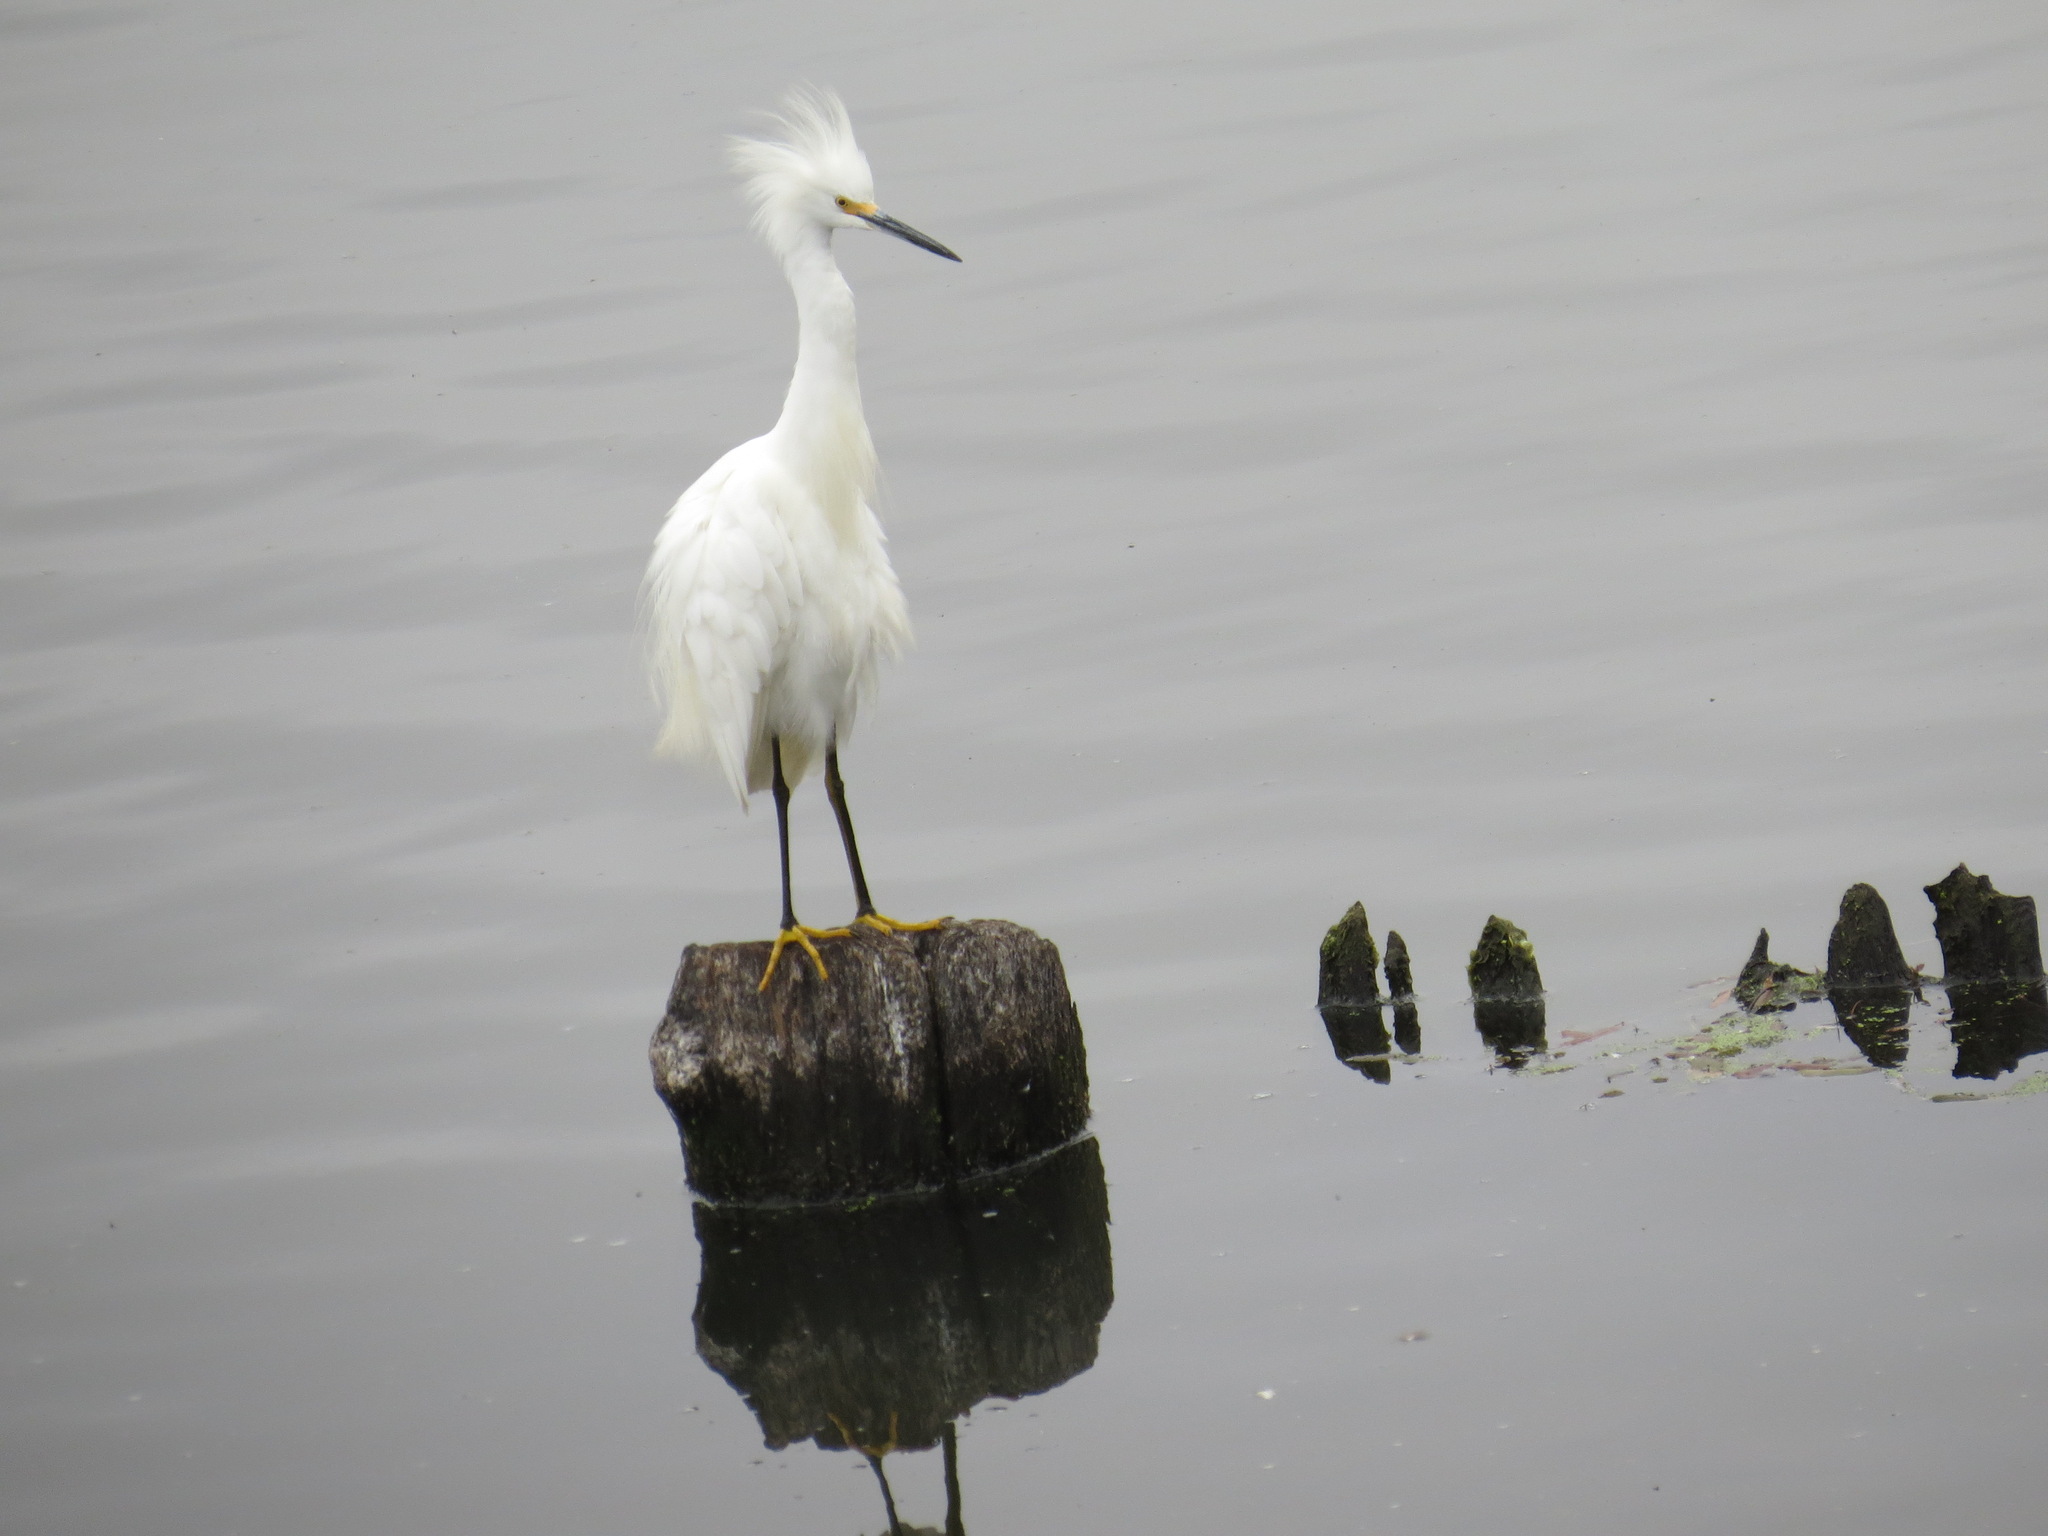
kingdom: Animalia
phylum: Chordata
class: Aves
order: Pelecaniformes
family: Ardeidae
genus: Egretta
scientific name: Egretta thula
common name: Snowy egret
